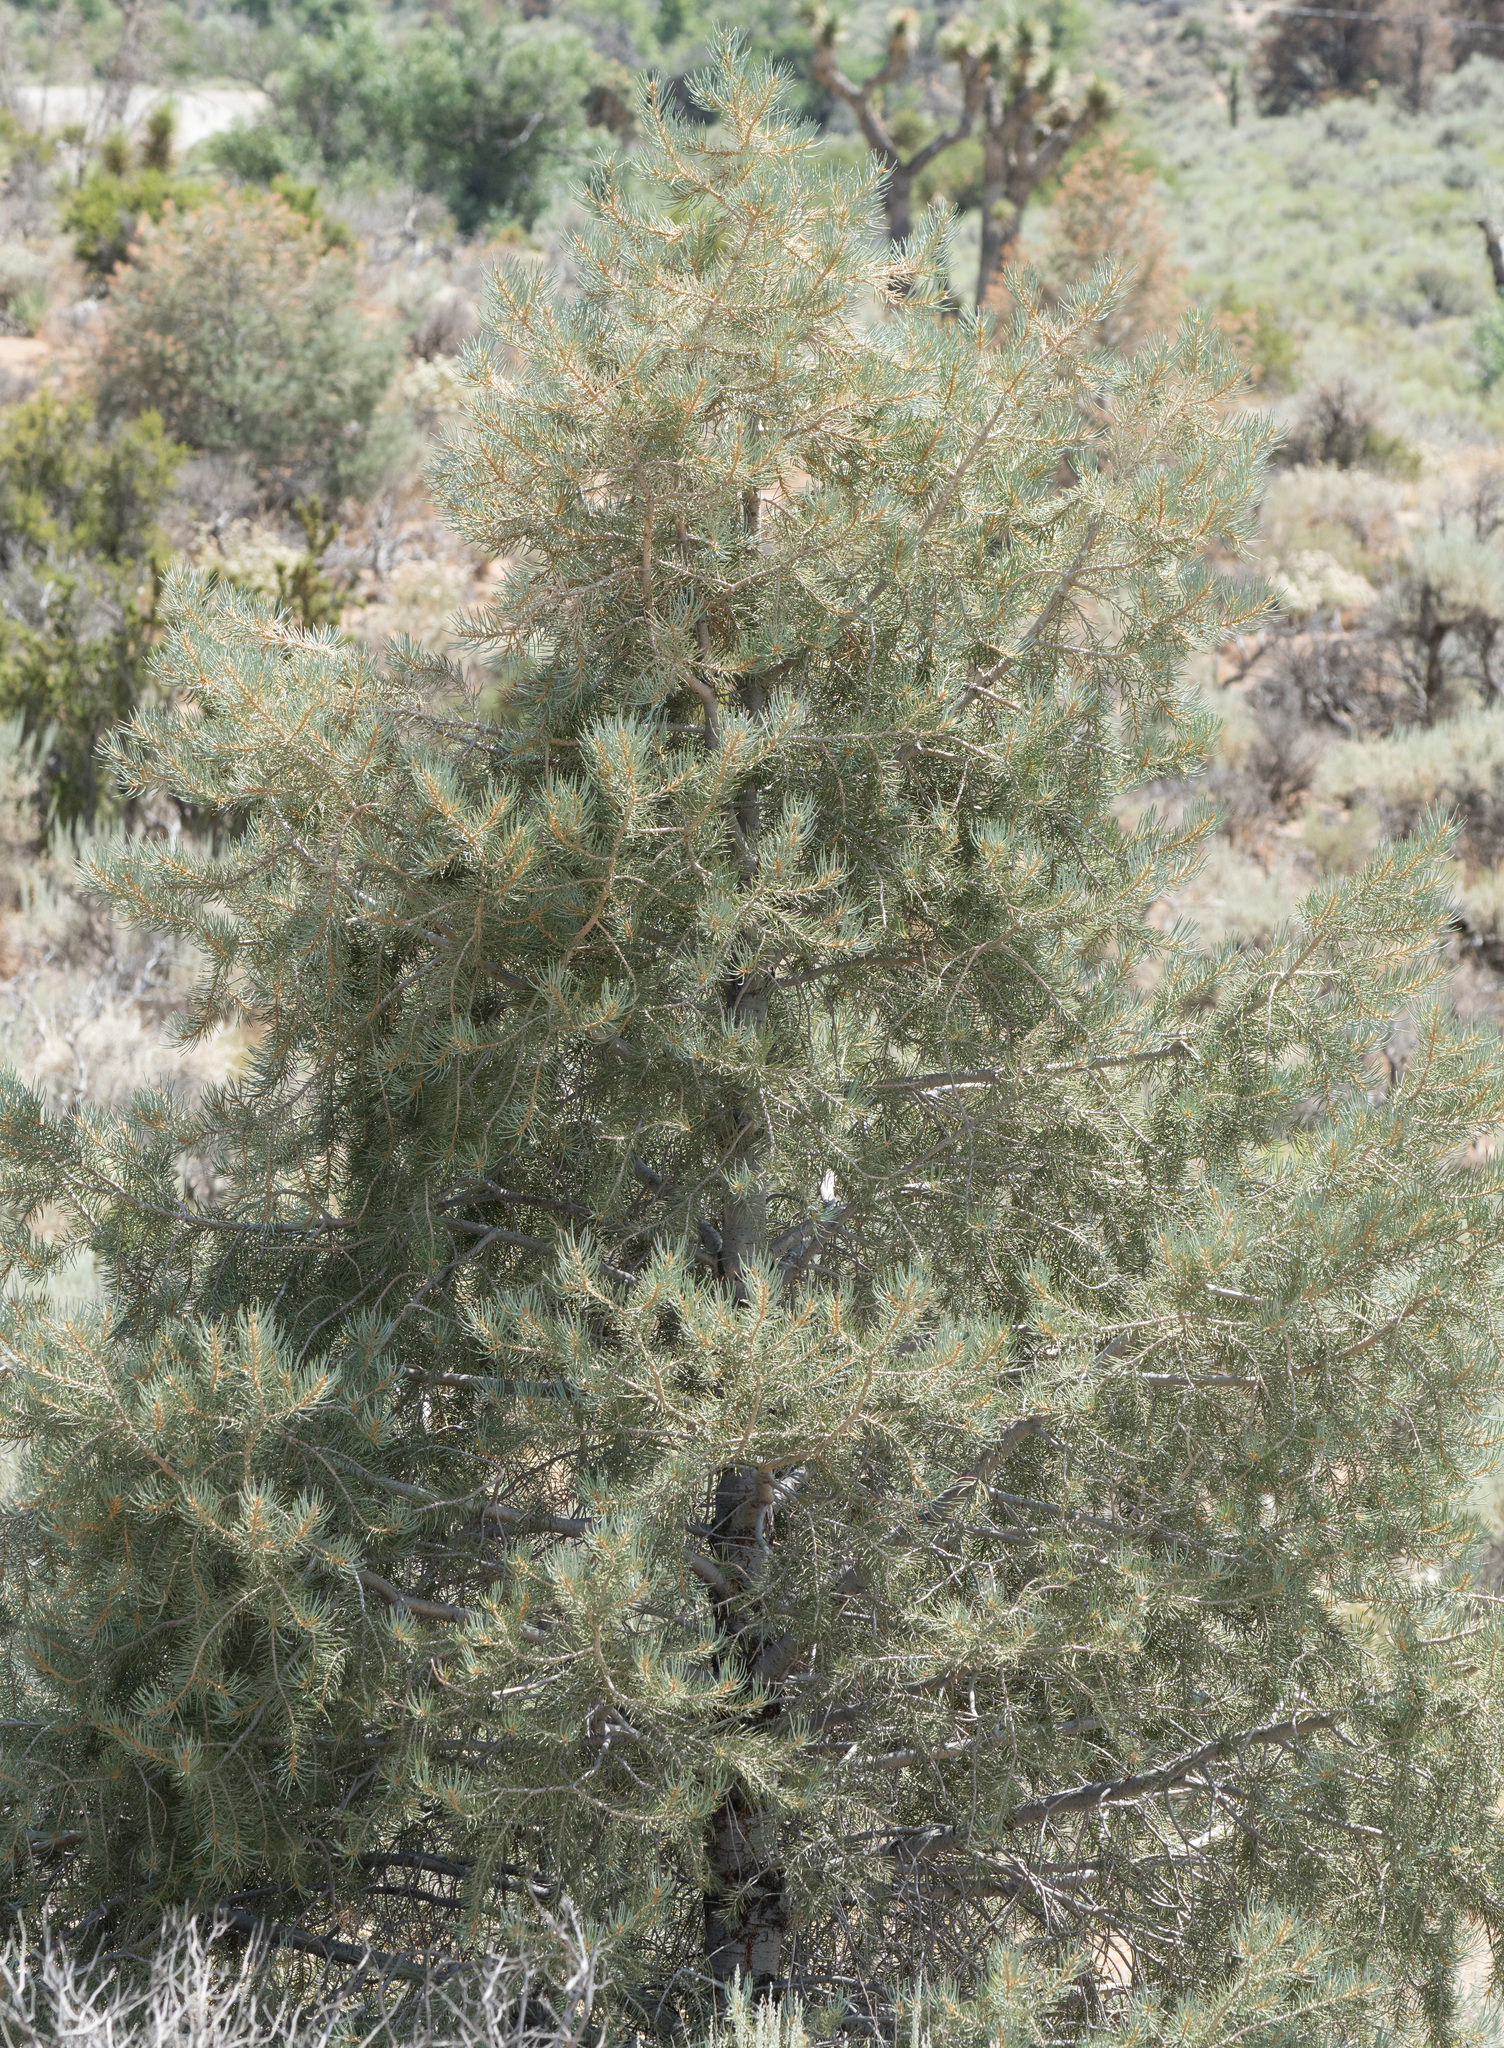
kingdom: Plantae
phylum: Tracheophyta
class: Pinopsida
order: Pinales
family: Pinaceae
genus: Pinus
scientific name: Pinus monophylla
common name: One-leaved nut pine
